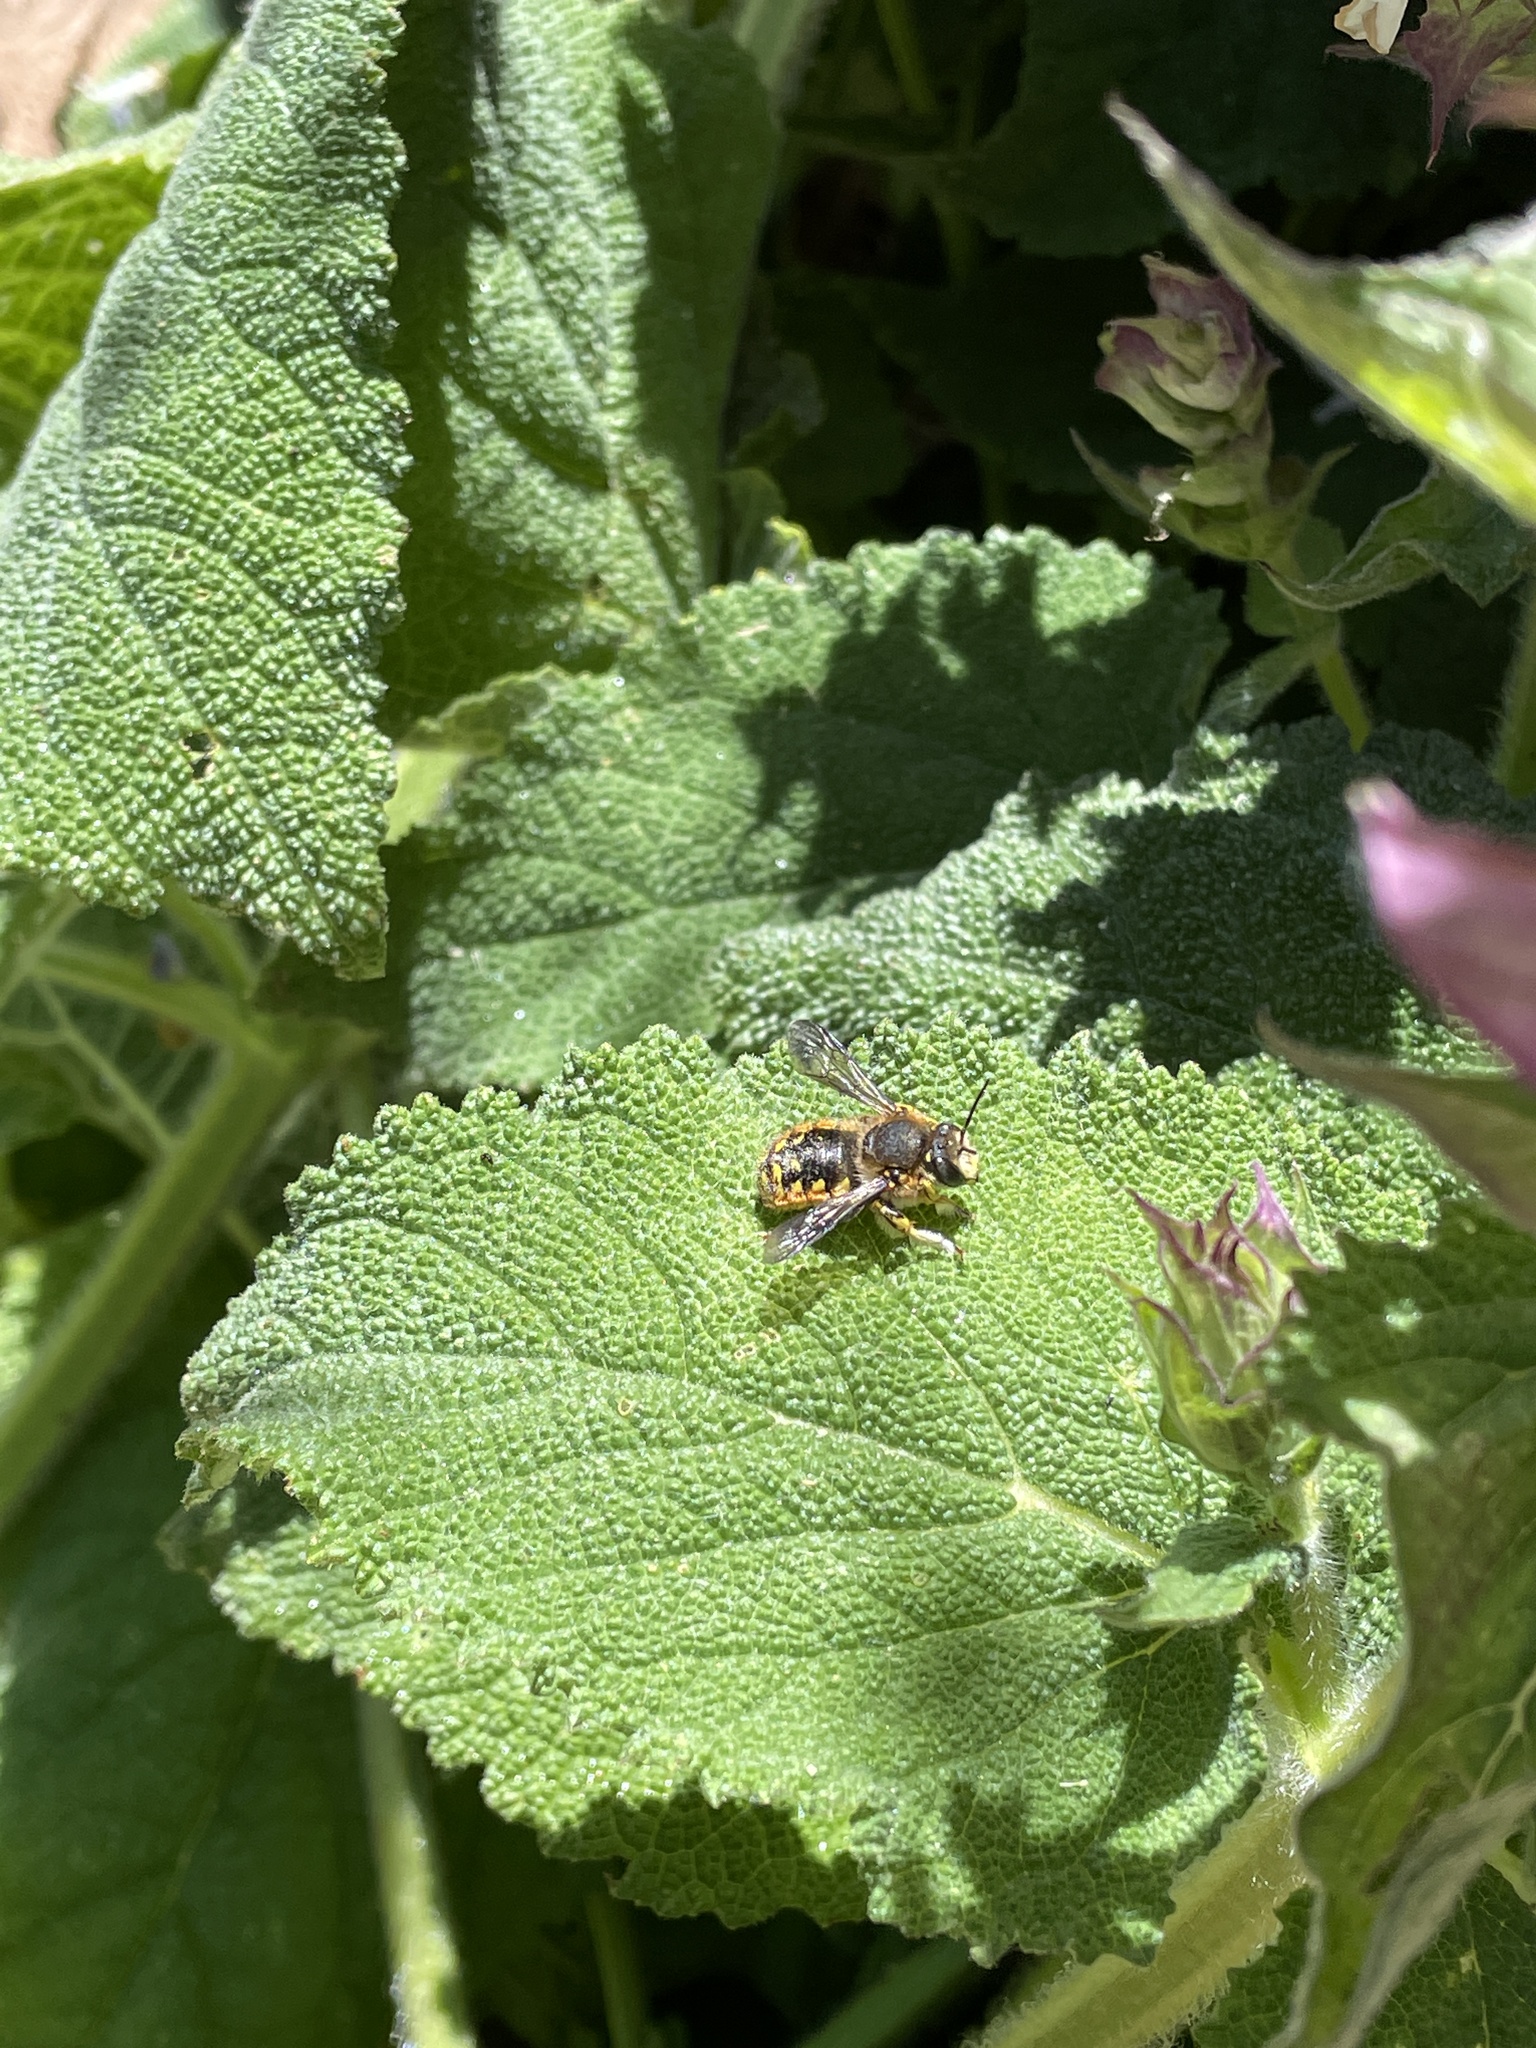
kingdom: Animalia
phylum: Arthropoda
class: Insecta
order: Hymenoptera
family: Megachilidae
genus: Anthidium
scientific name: Anthidium manicatum
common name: Wool carder bee
